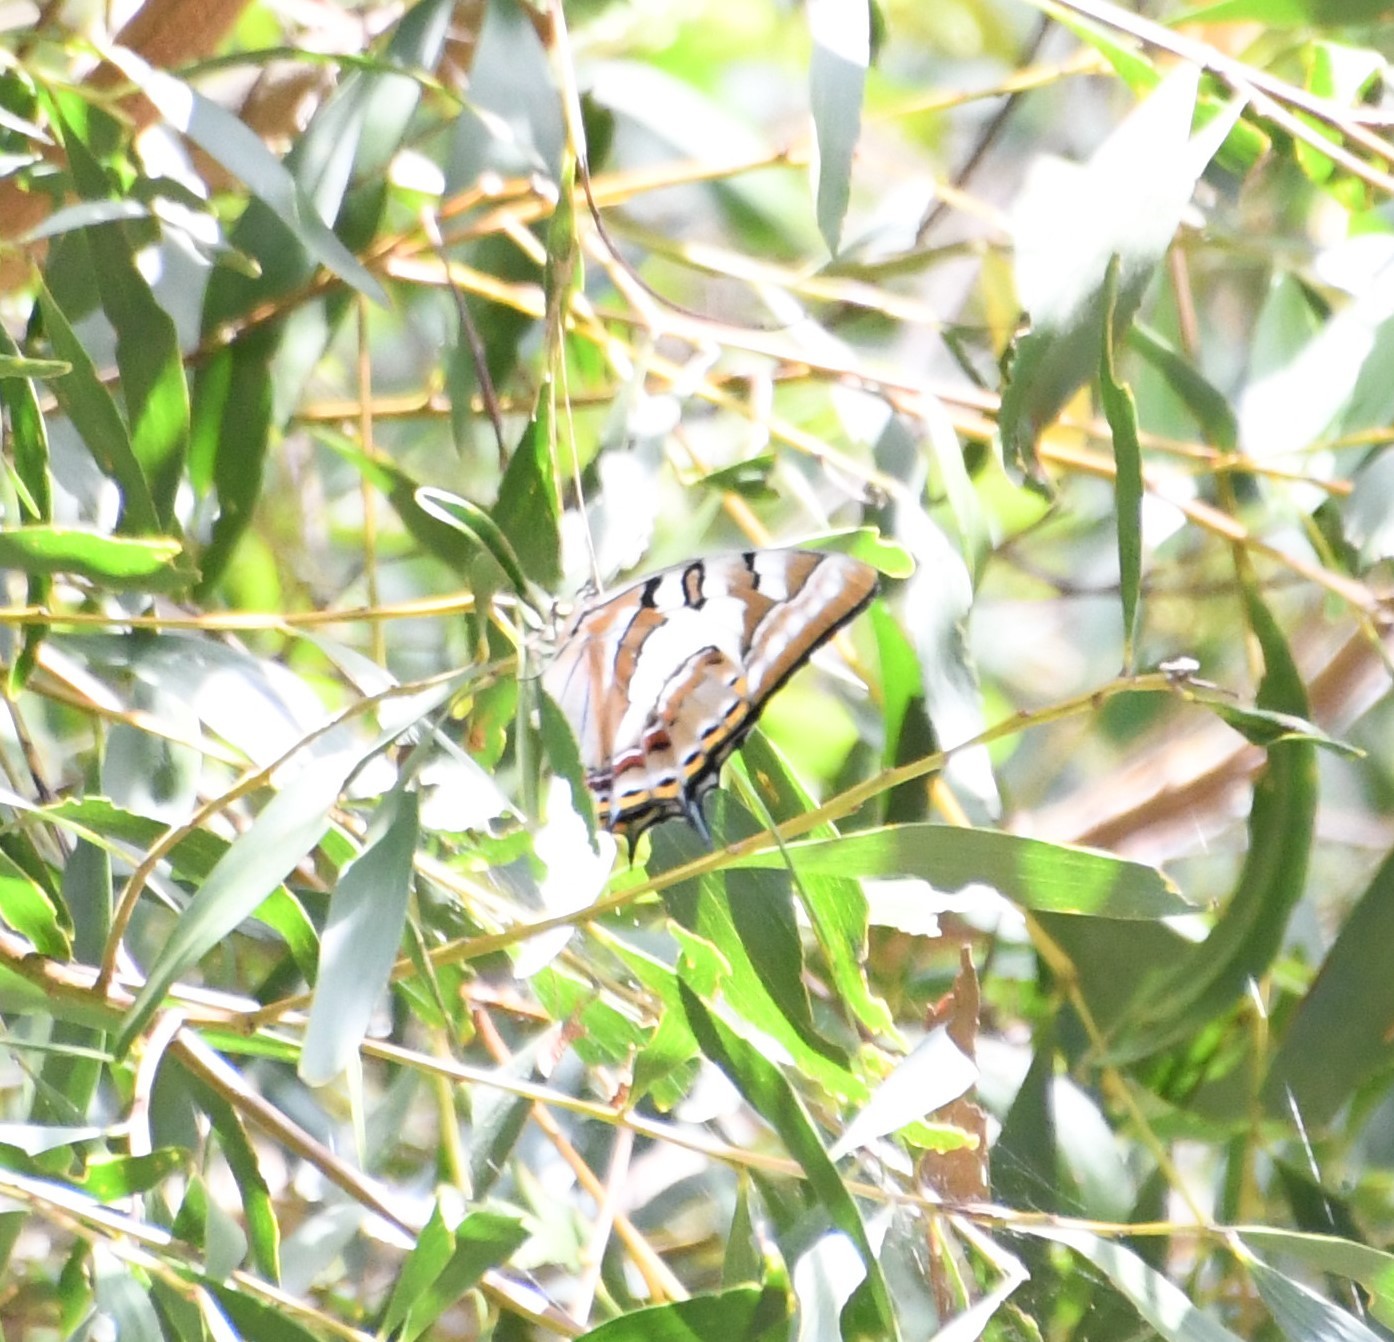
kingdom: Animalia
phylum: Arthropoda
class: Insecta
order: Lepidoptera
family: Nymphalidae
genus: Charaxes
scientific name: Charaxes
